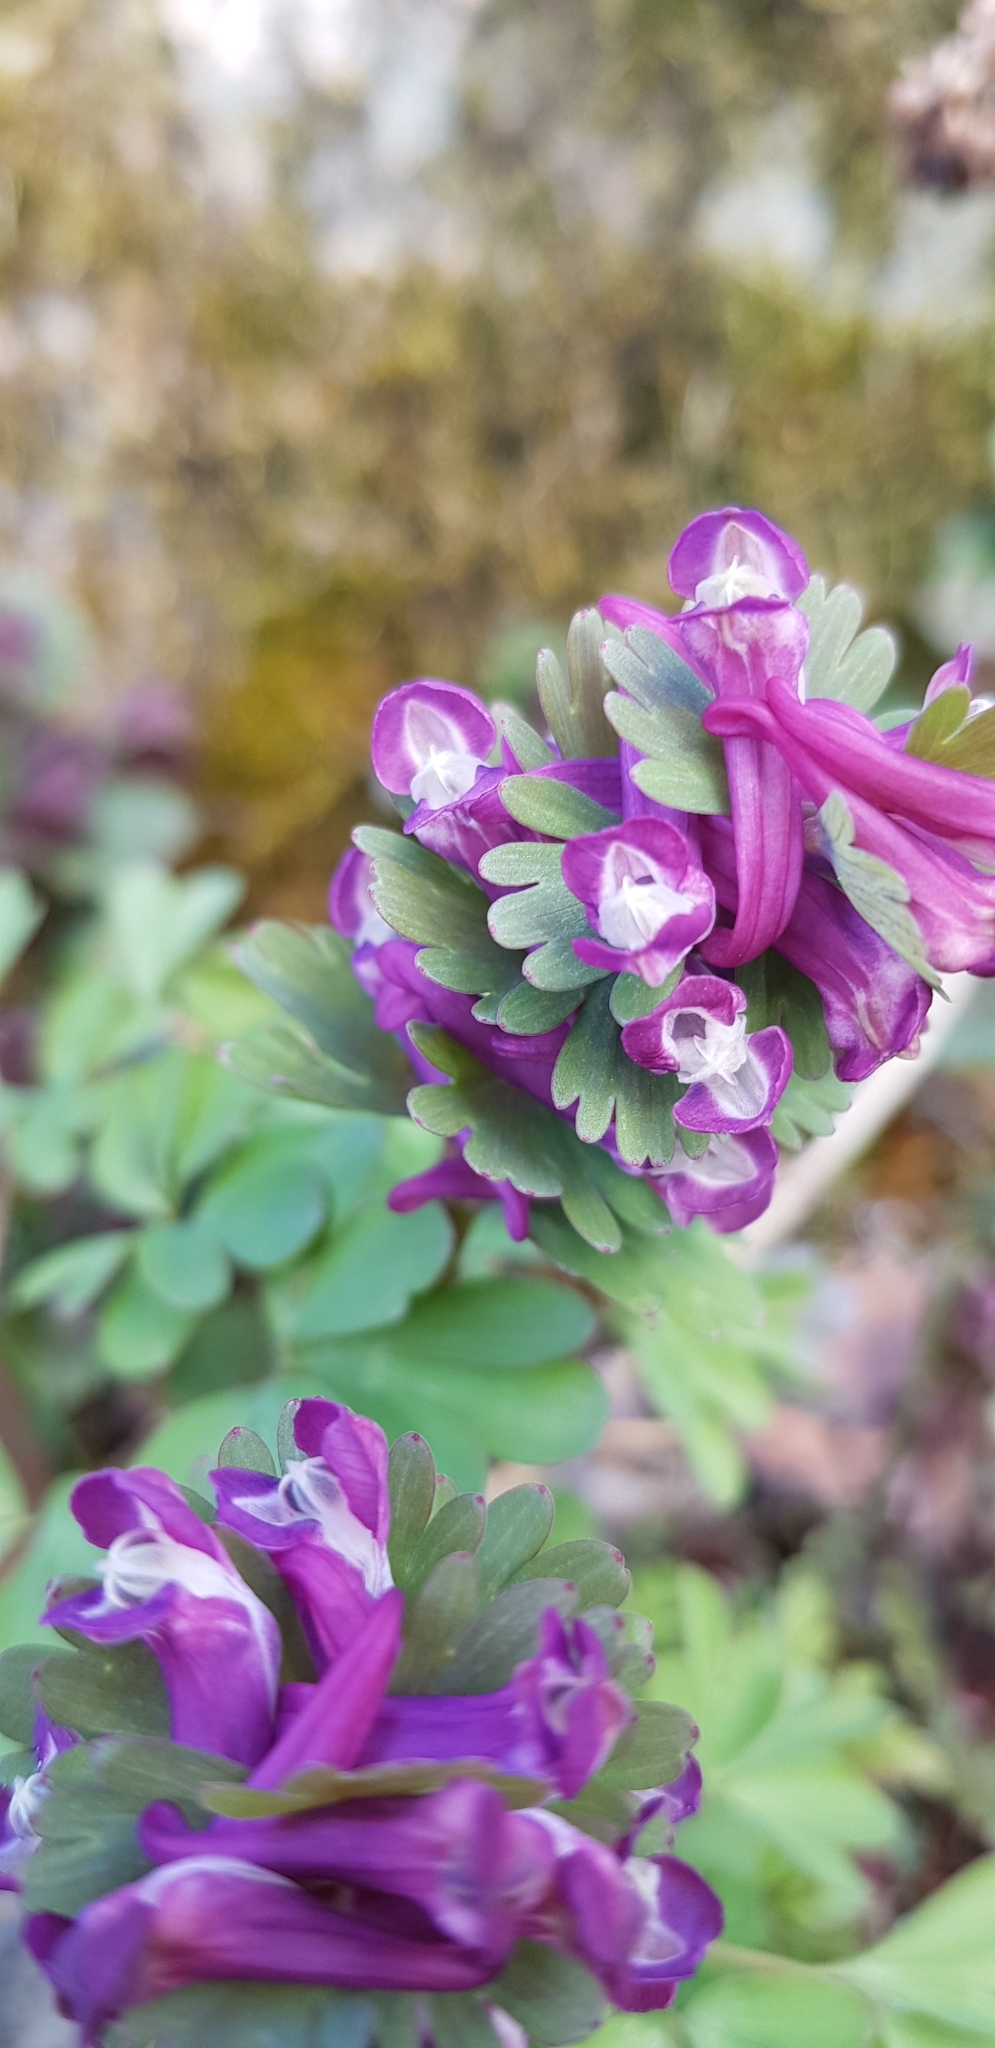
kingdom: Plantae
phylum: Tracheophyta
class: Magnoliopsida
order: Ranunculales
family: Papaveraceae
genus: Corydalis
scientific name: Corydalis solida
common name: Bird-in-a-bush
